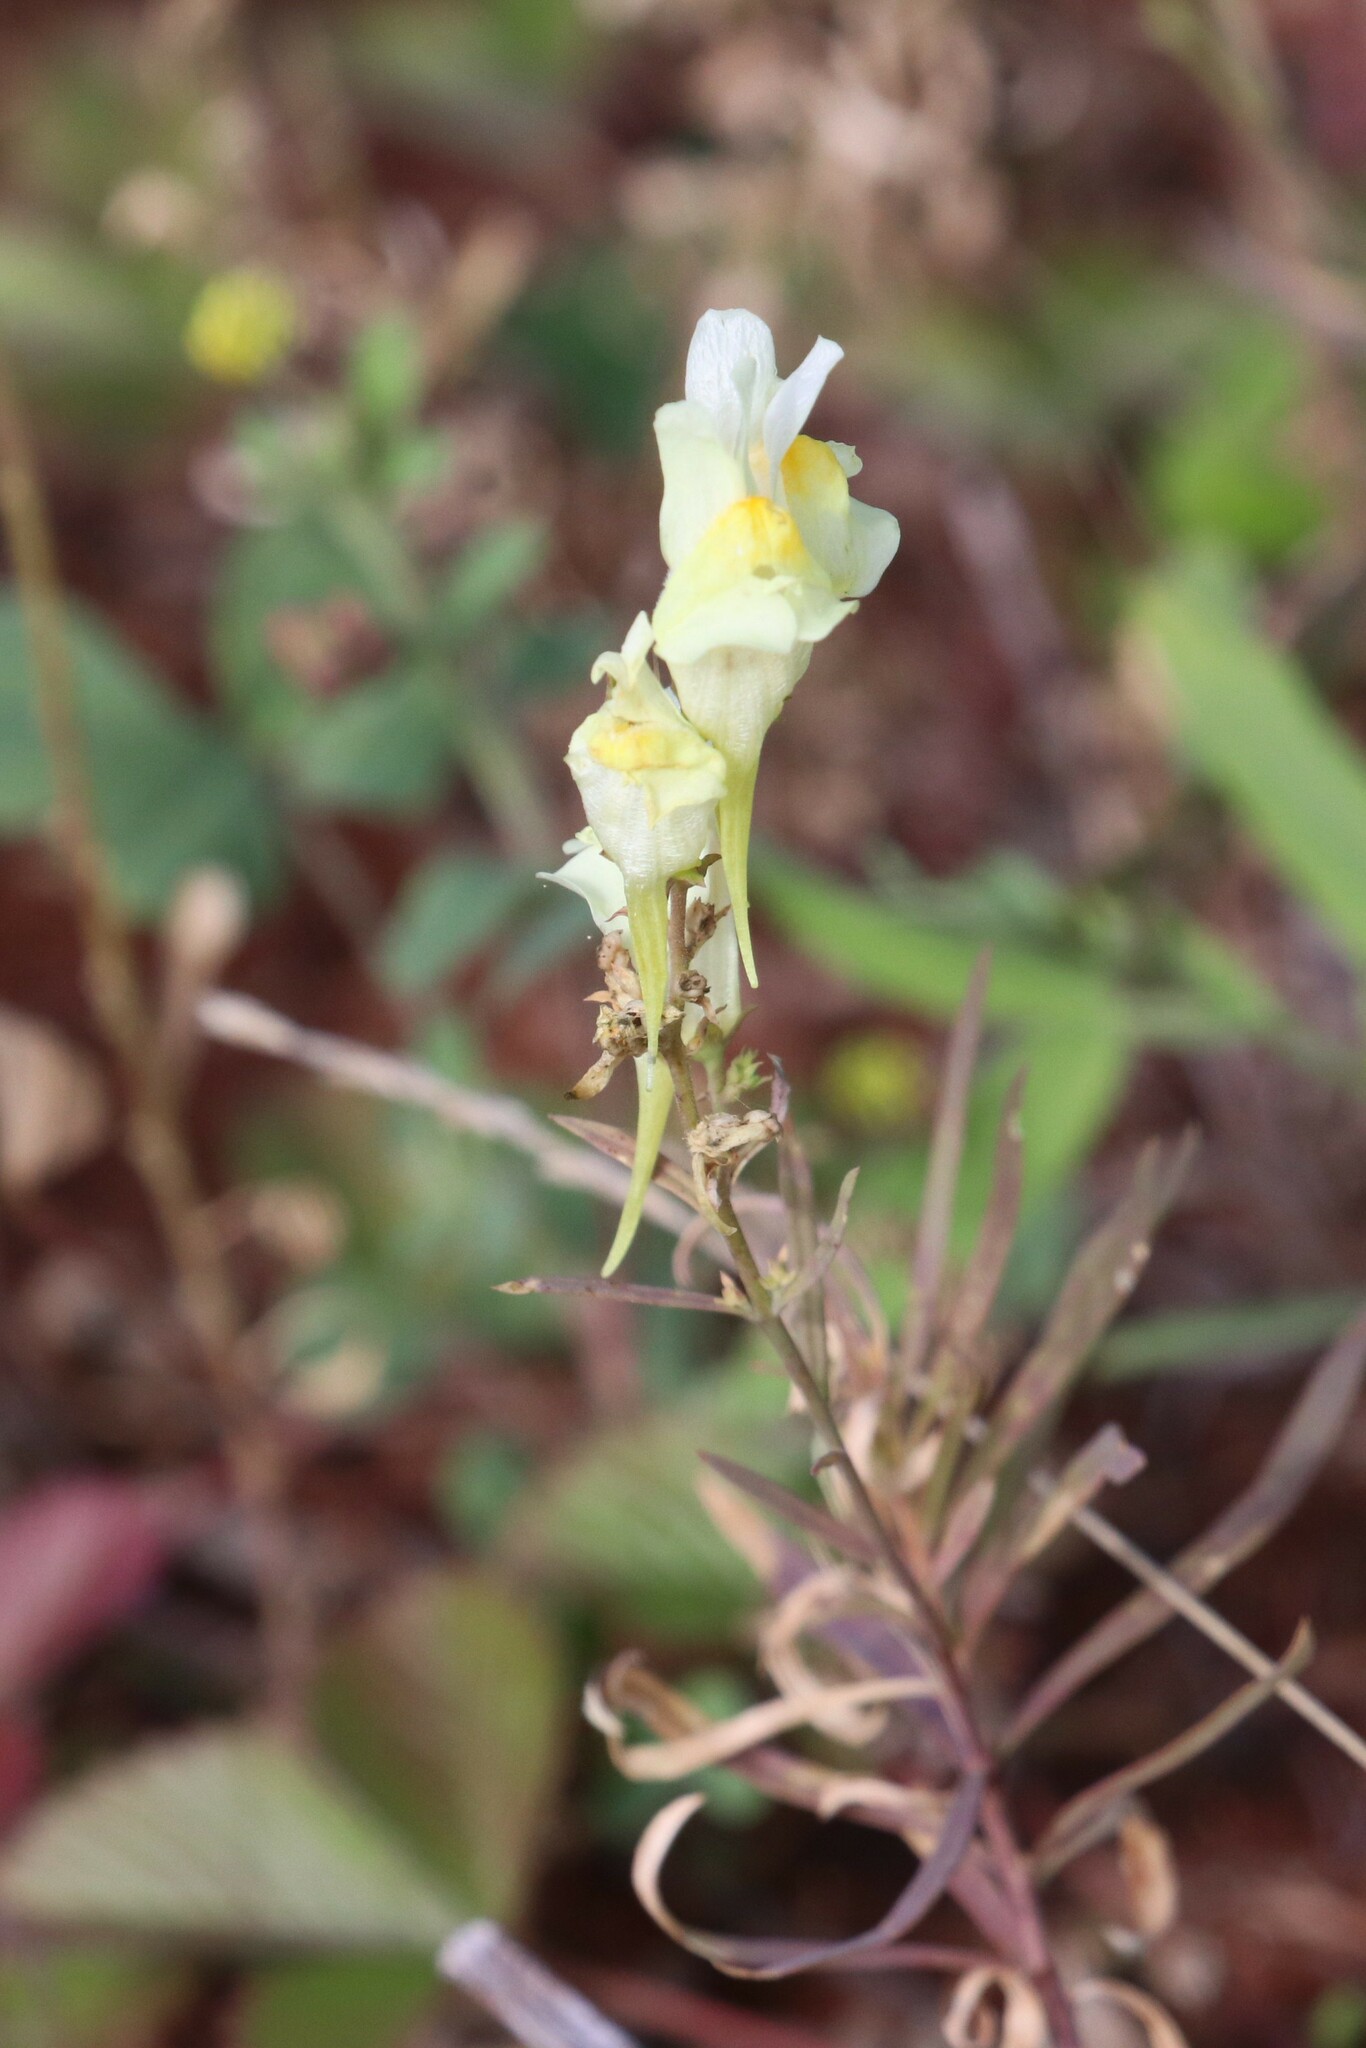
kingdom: Plantae
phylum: Tracheophyta
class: Magnoliopsida
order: Lamiales
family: Plantaginaceae
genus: Linaria
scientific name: Linaria vulgaris
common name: Butter and eggs
